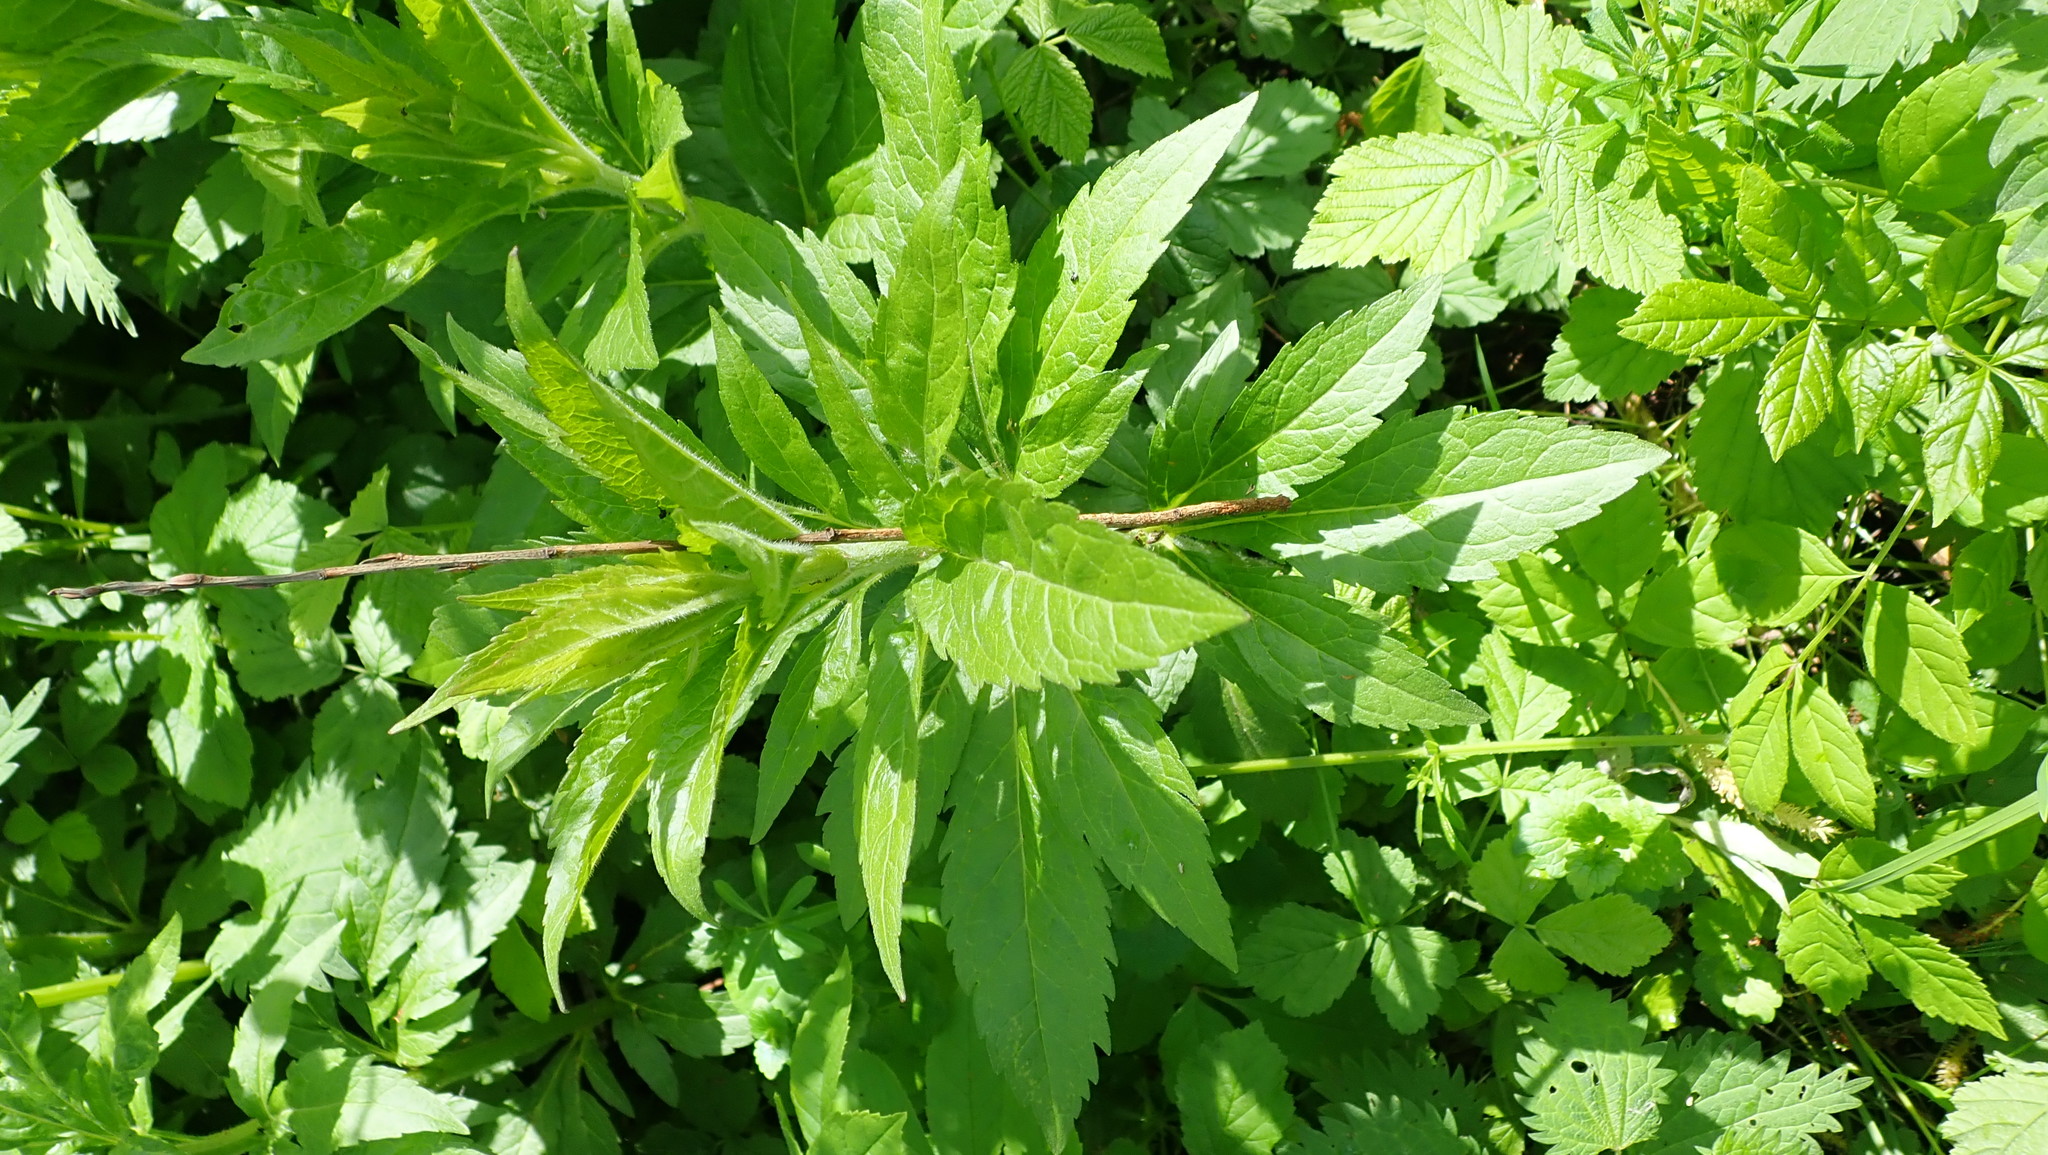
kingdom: Plantae
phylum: Tracheophyta
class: Magnoliopsida
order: Asterales
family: Asteraceae
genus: Eupatorium
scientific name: Eupatorium cannabinum
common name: Hemp-agrimony
